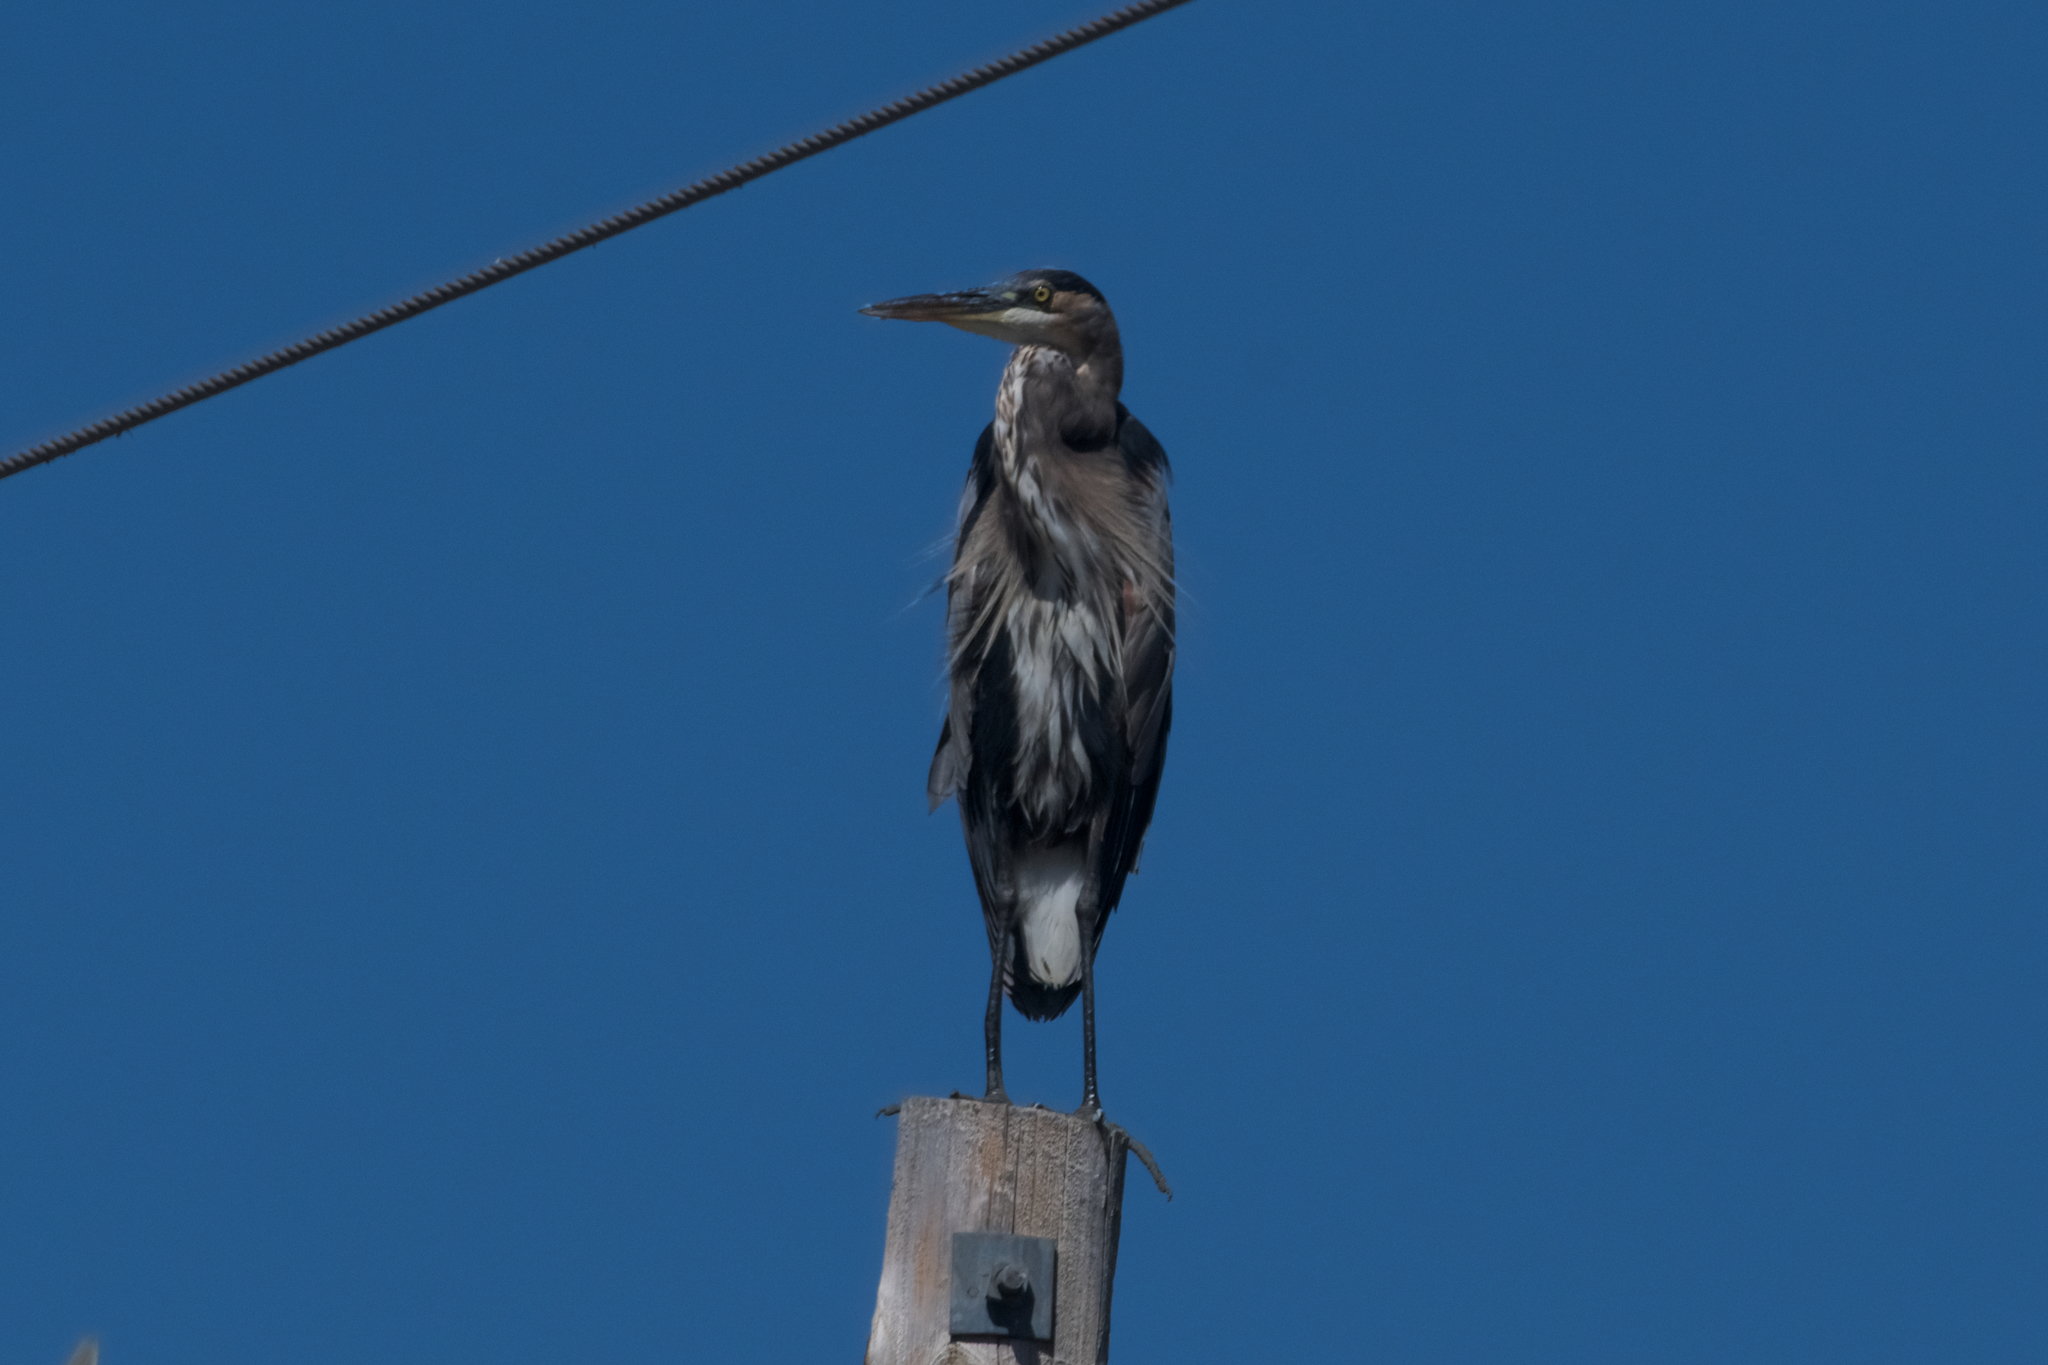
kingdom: Animalia
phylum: Chordata
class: Aves
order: Pelecaniformes
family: Ardeidae
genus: Ardea
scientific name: Ardea herodias
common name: Great blue heron
